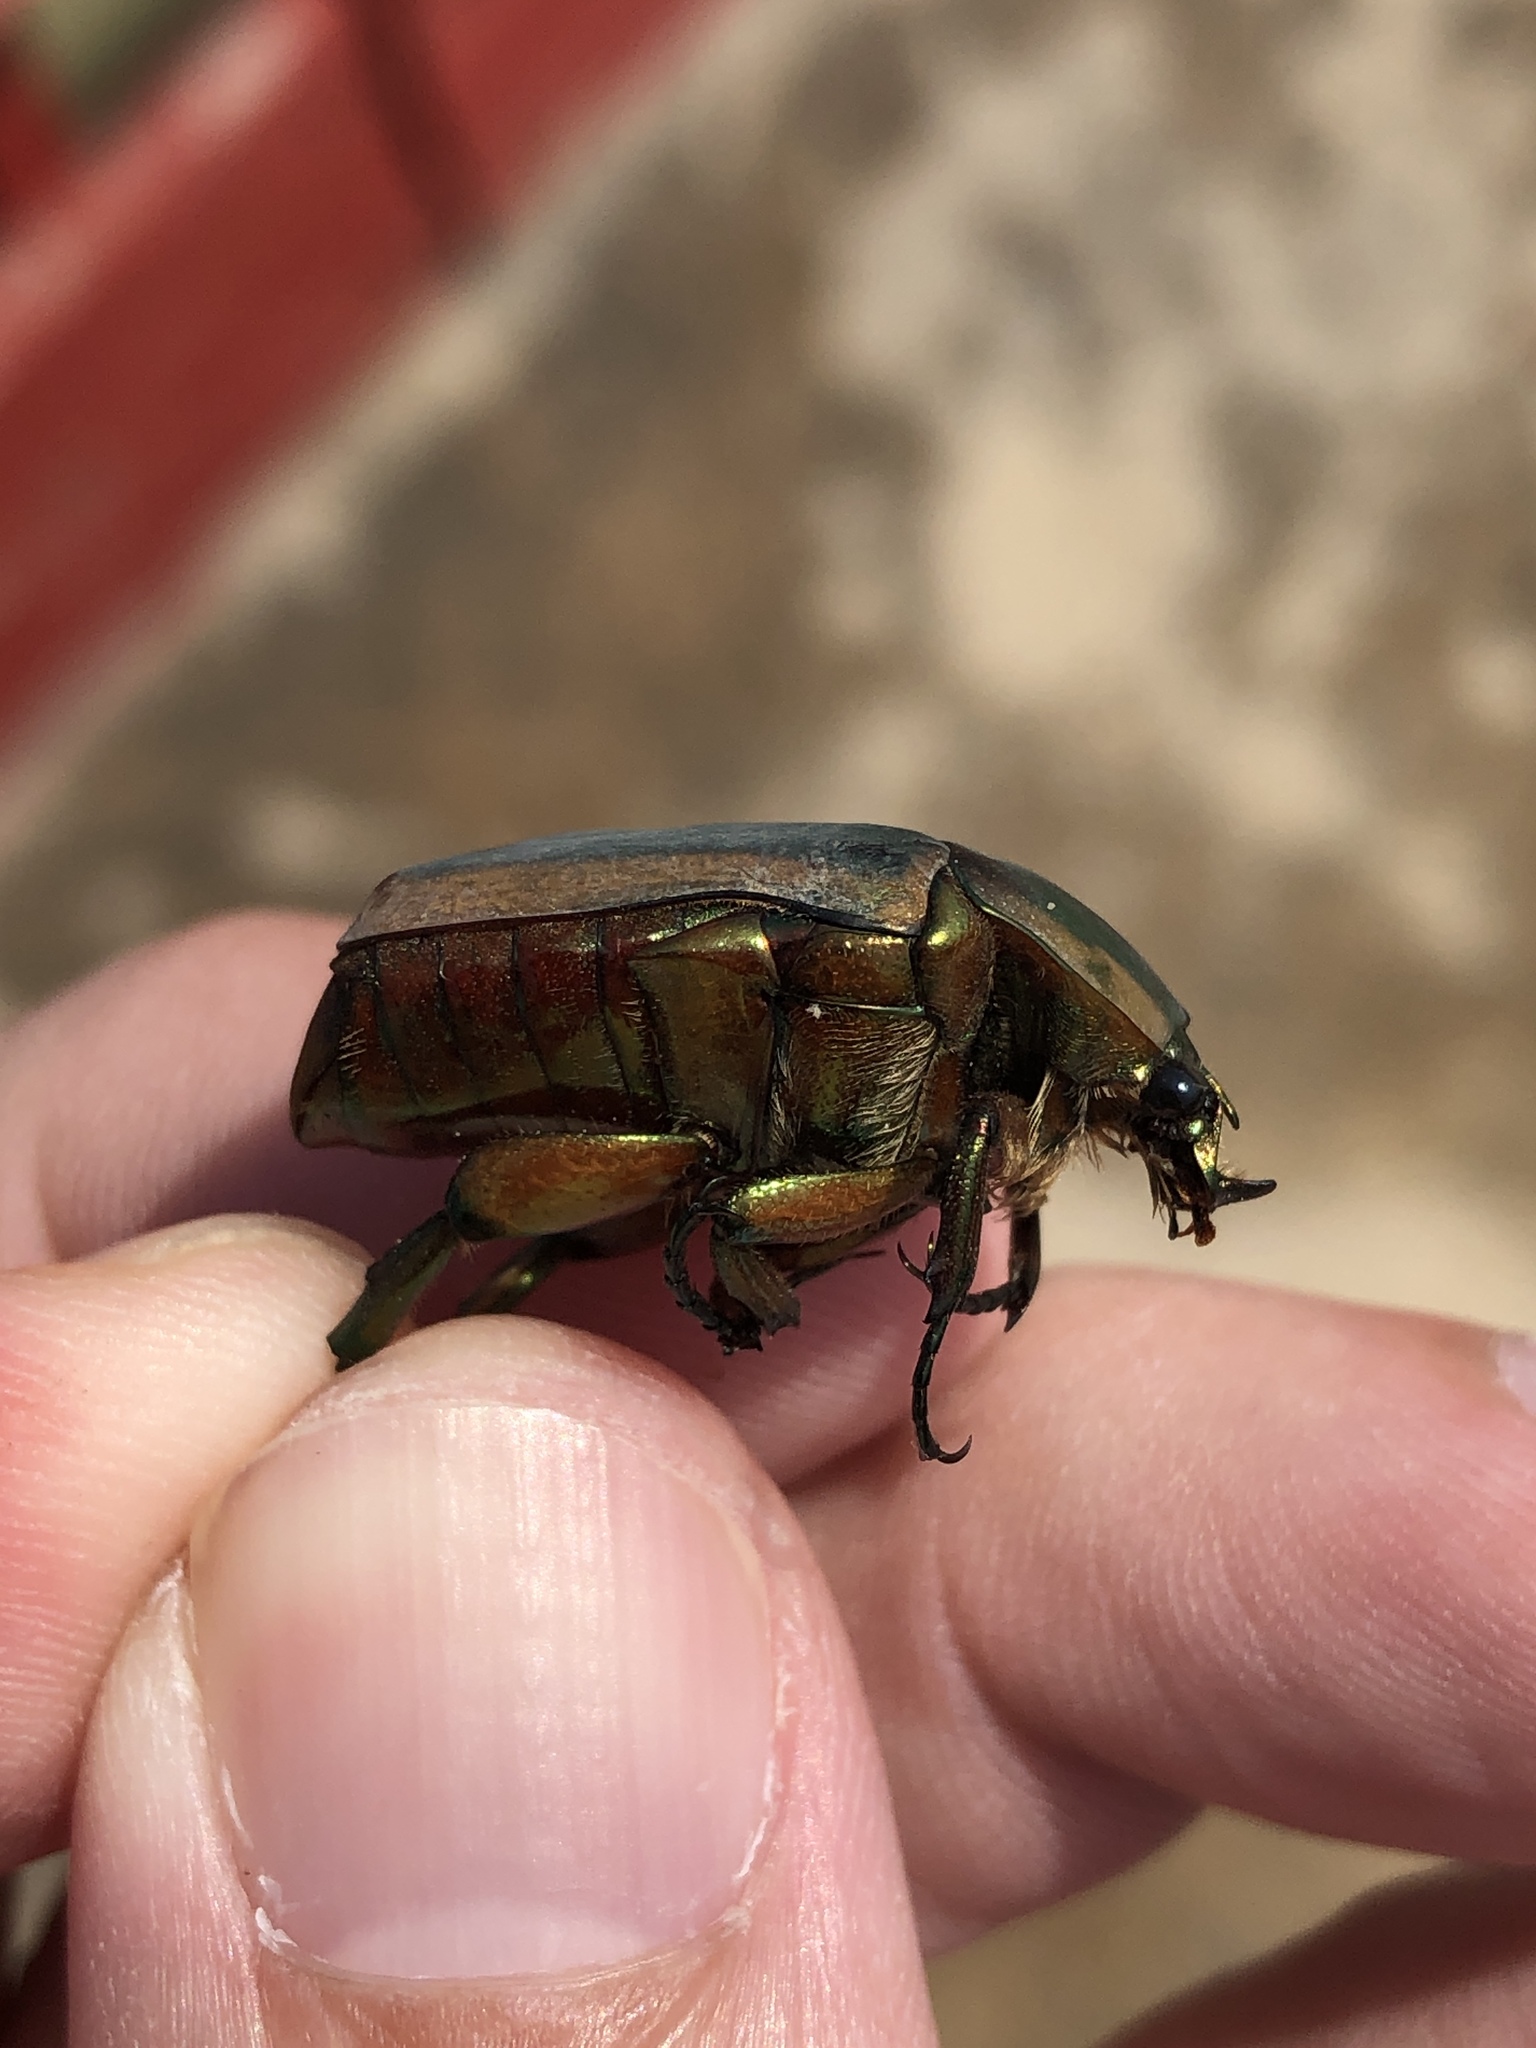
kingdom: Animalia
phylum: Arthropoda
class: Insecta
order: Coleoptera
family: Scarabaeidae
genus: Cotinis
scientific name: Cotinis nitida
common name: Common green june beetle
